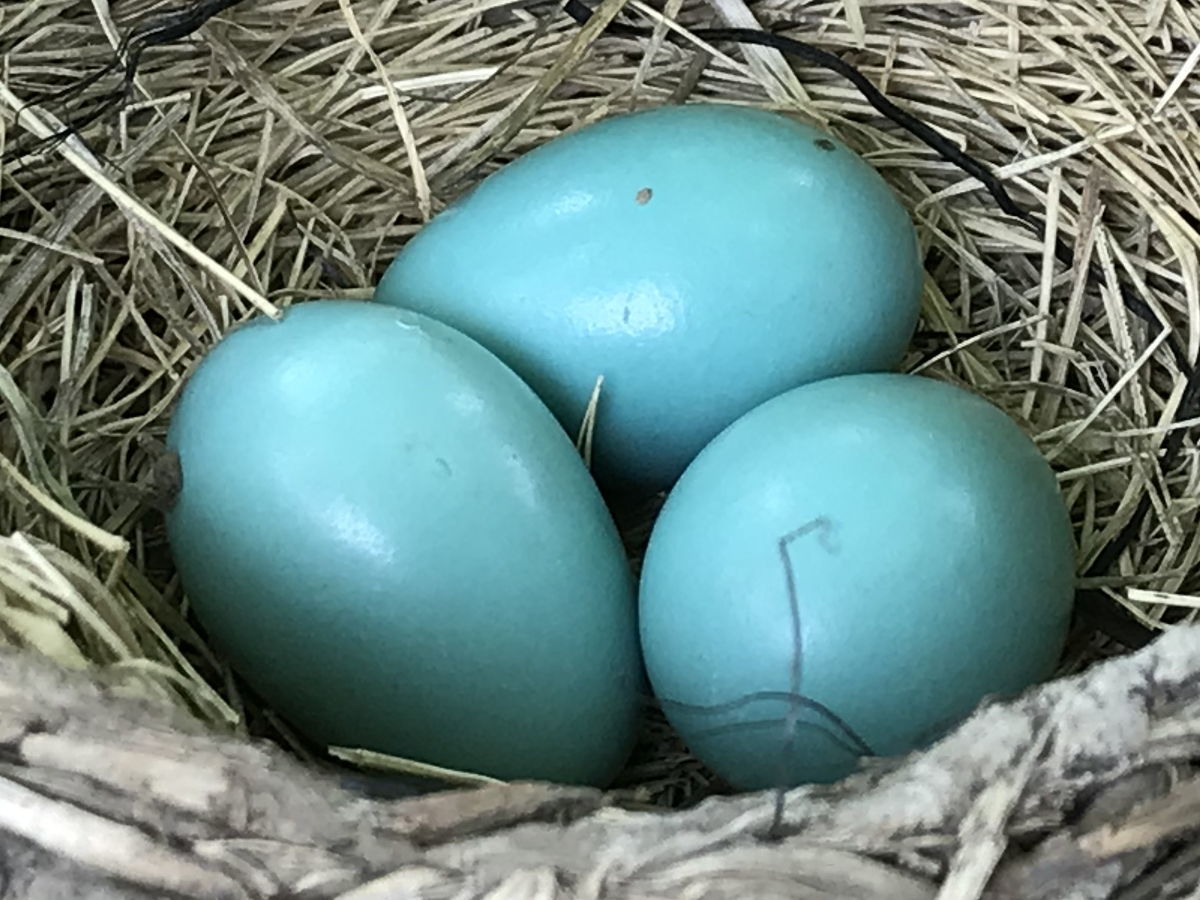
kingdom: Animalia
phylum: Chordata
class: Aves
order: Passeriformes
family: Turdidae
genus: Turdus
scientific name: Turdus migratorius
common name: American robin
